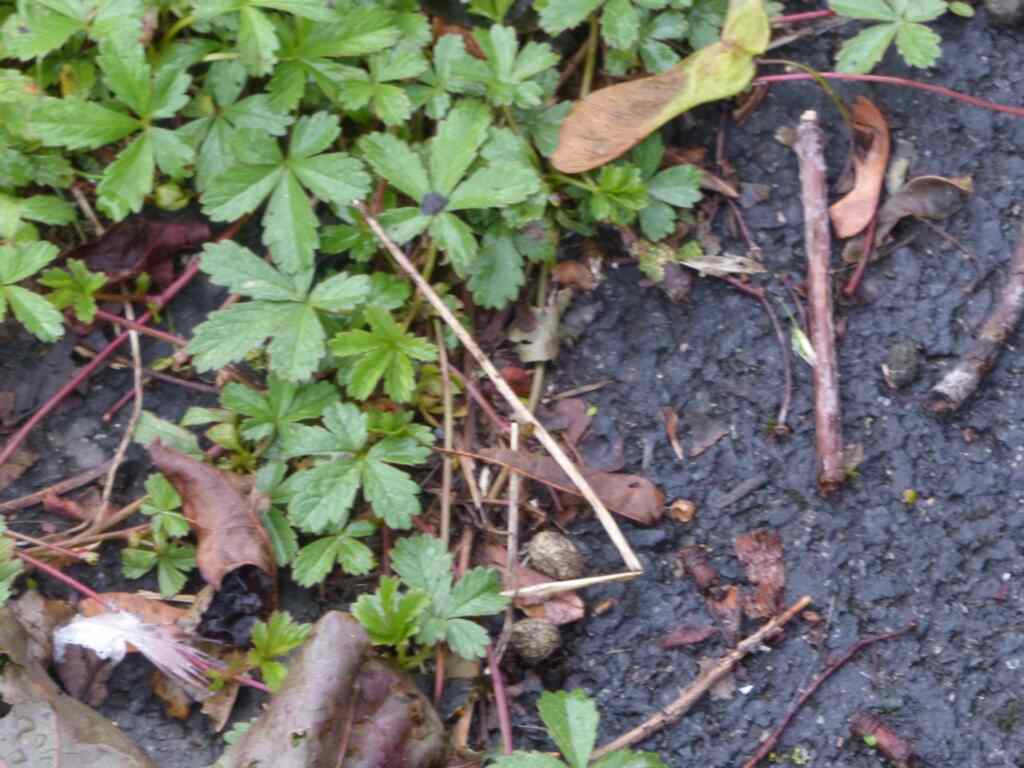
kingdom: Plantae
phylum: Tracheophyta
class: Magnoliopsida
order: Rosales
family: Rosaceae
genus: Potentilla
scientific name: Potentilla reptans
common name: Creeping cinquefoil
